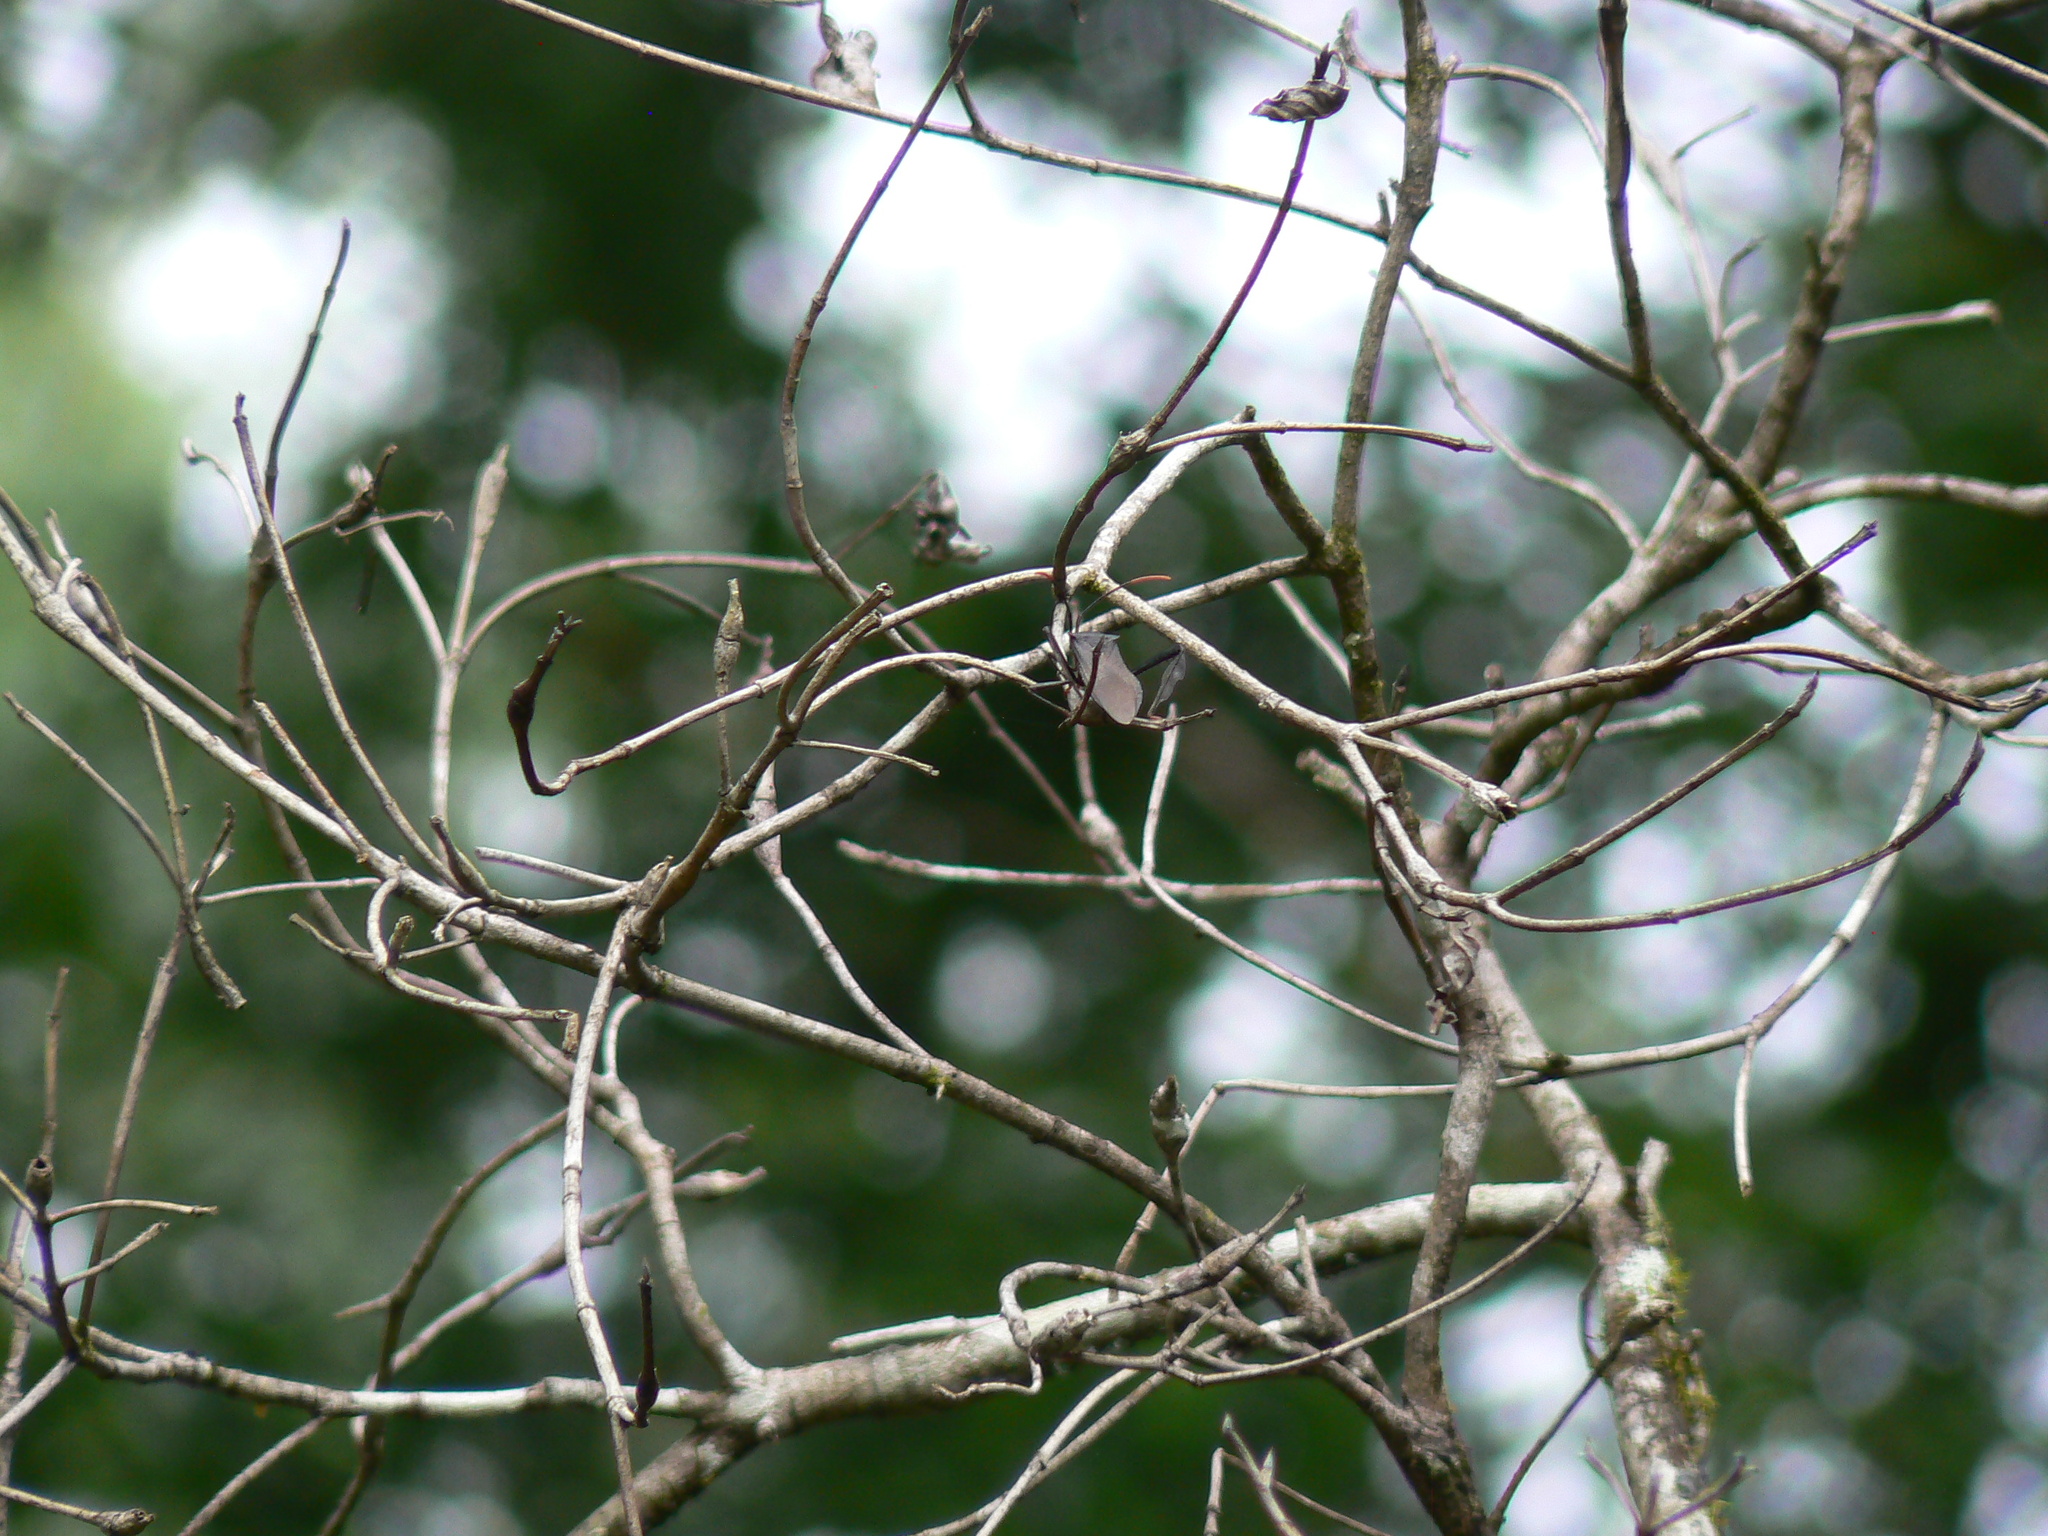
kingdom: Animalia
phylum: Arthropoda
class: Insecta
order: Hemiptera
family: Coreidae
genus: Acanthocephala
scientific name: Acanthocephala terminalis
